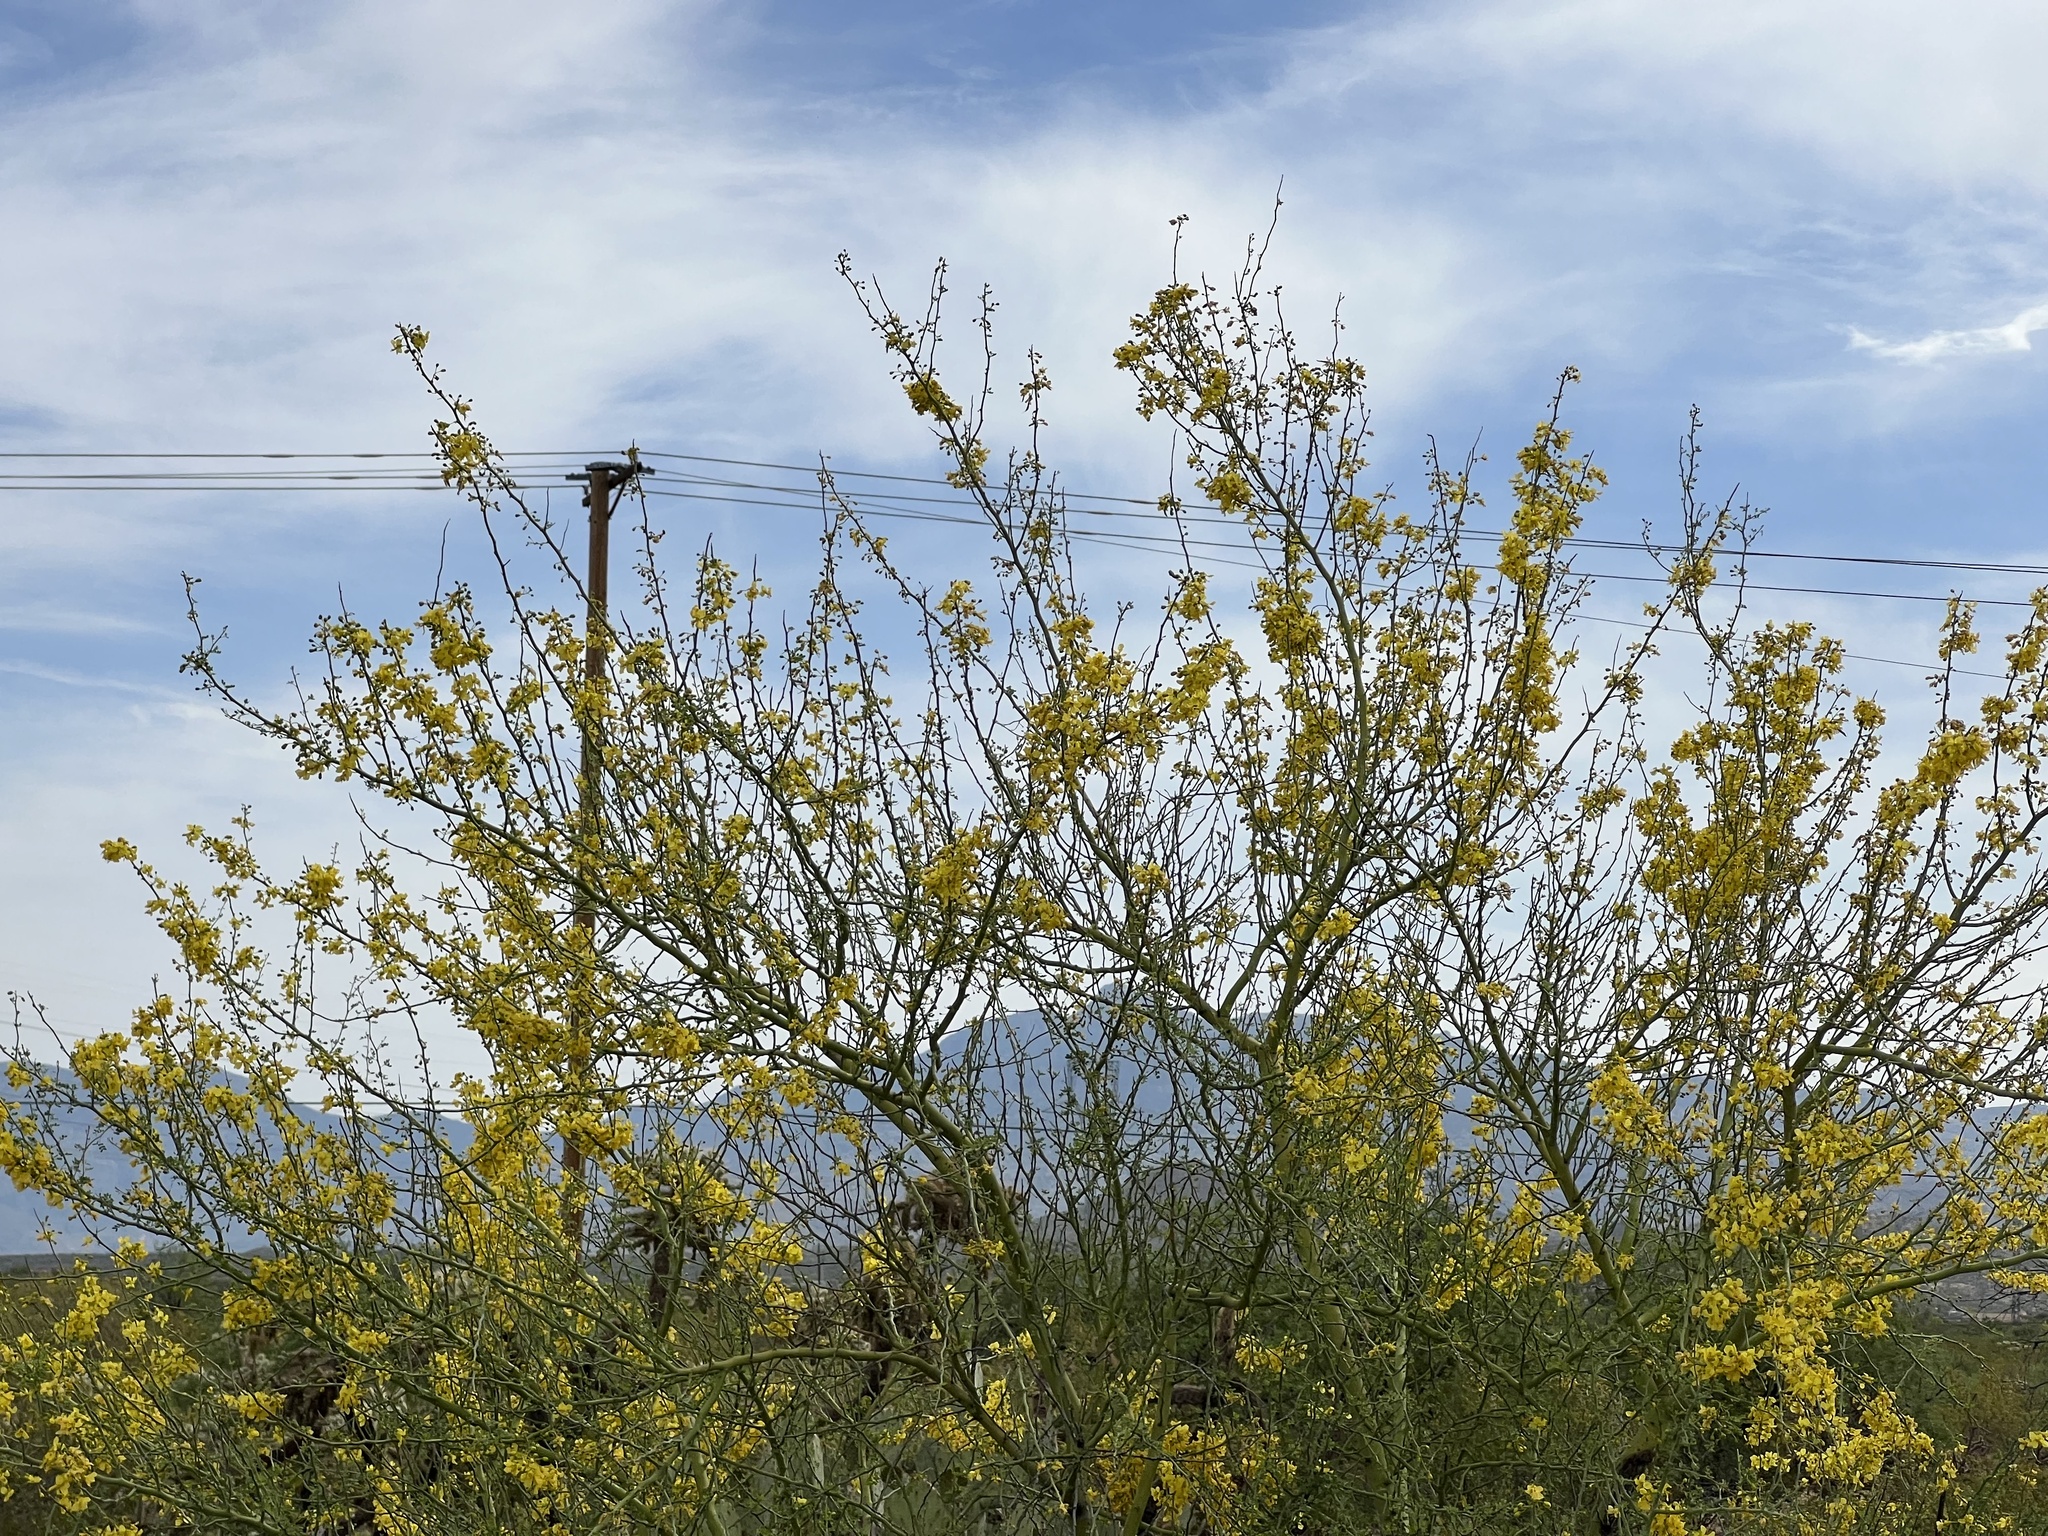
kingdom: Plantae
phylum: Tracheophyta
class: Magnoliopsida
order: Fabales
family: Fabaceae
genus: Parkinsonia
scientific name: Parkinsonia microphylla
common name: Yellow paloverde
